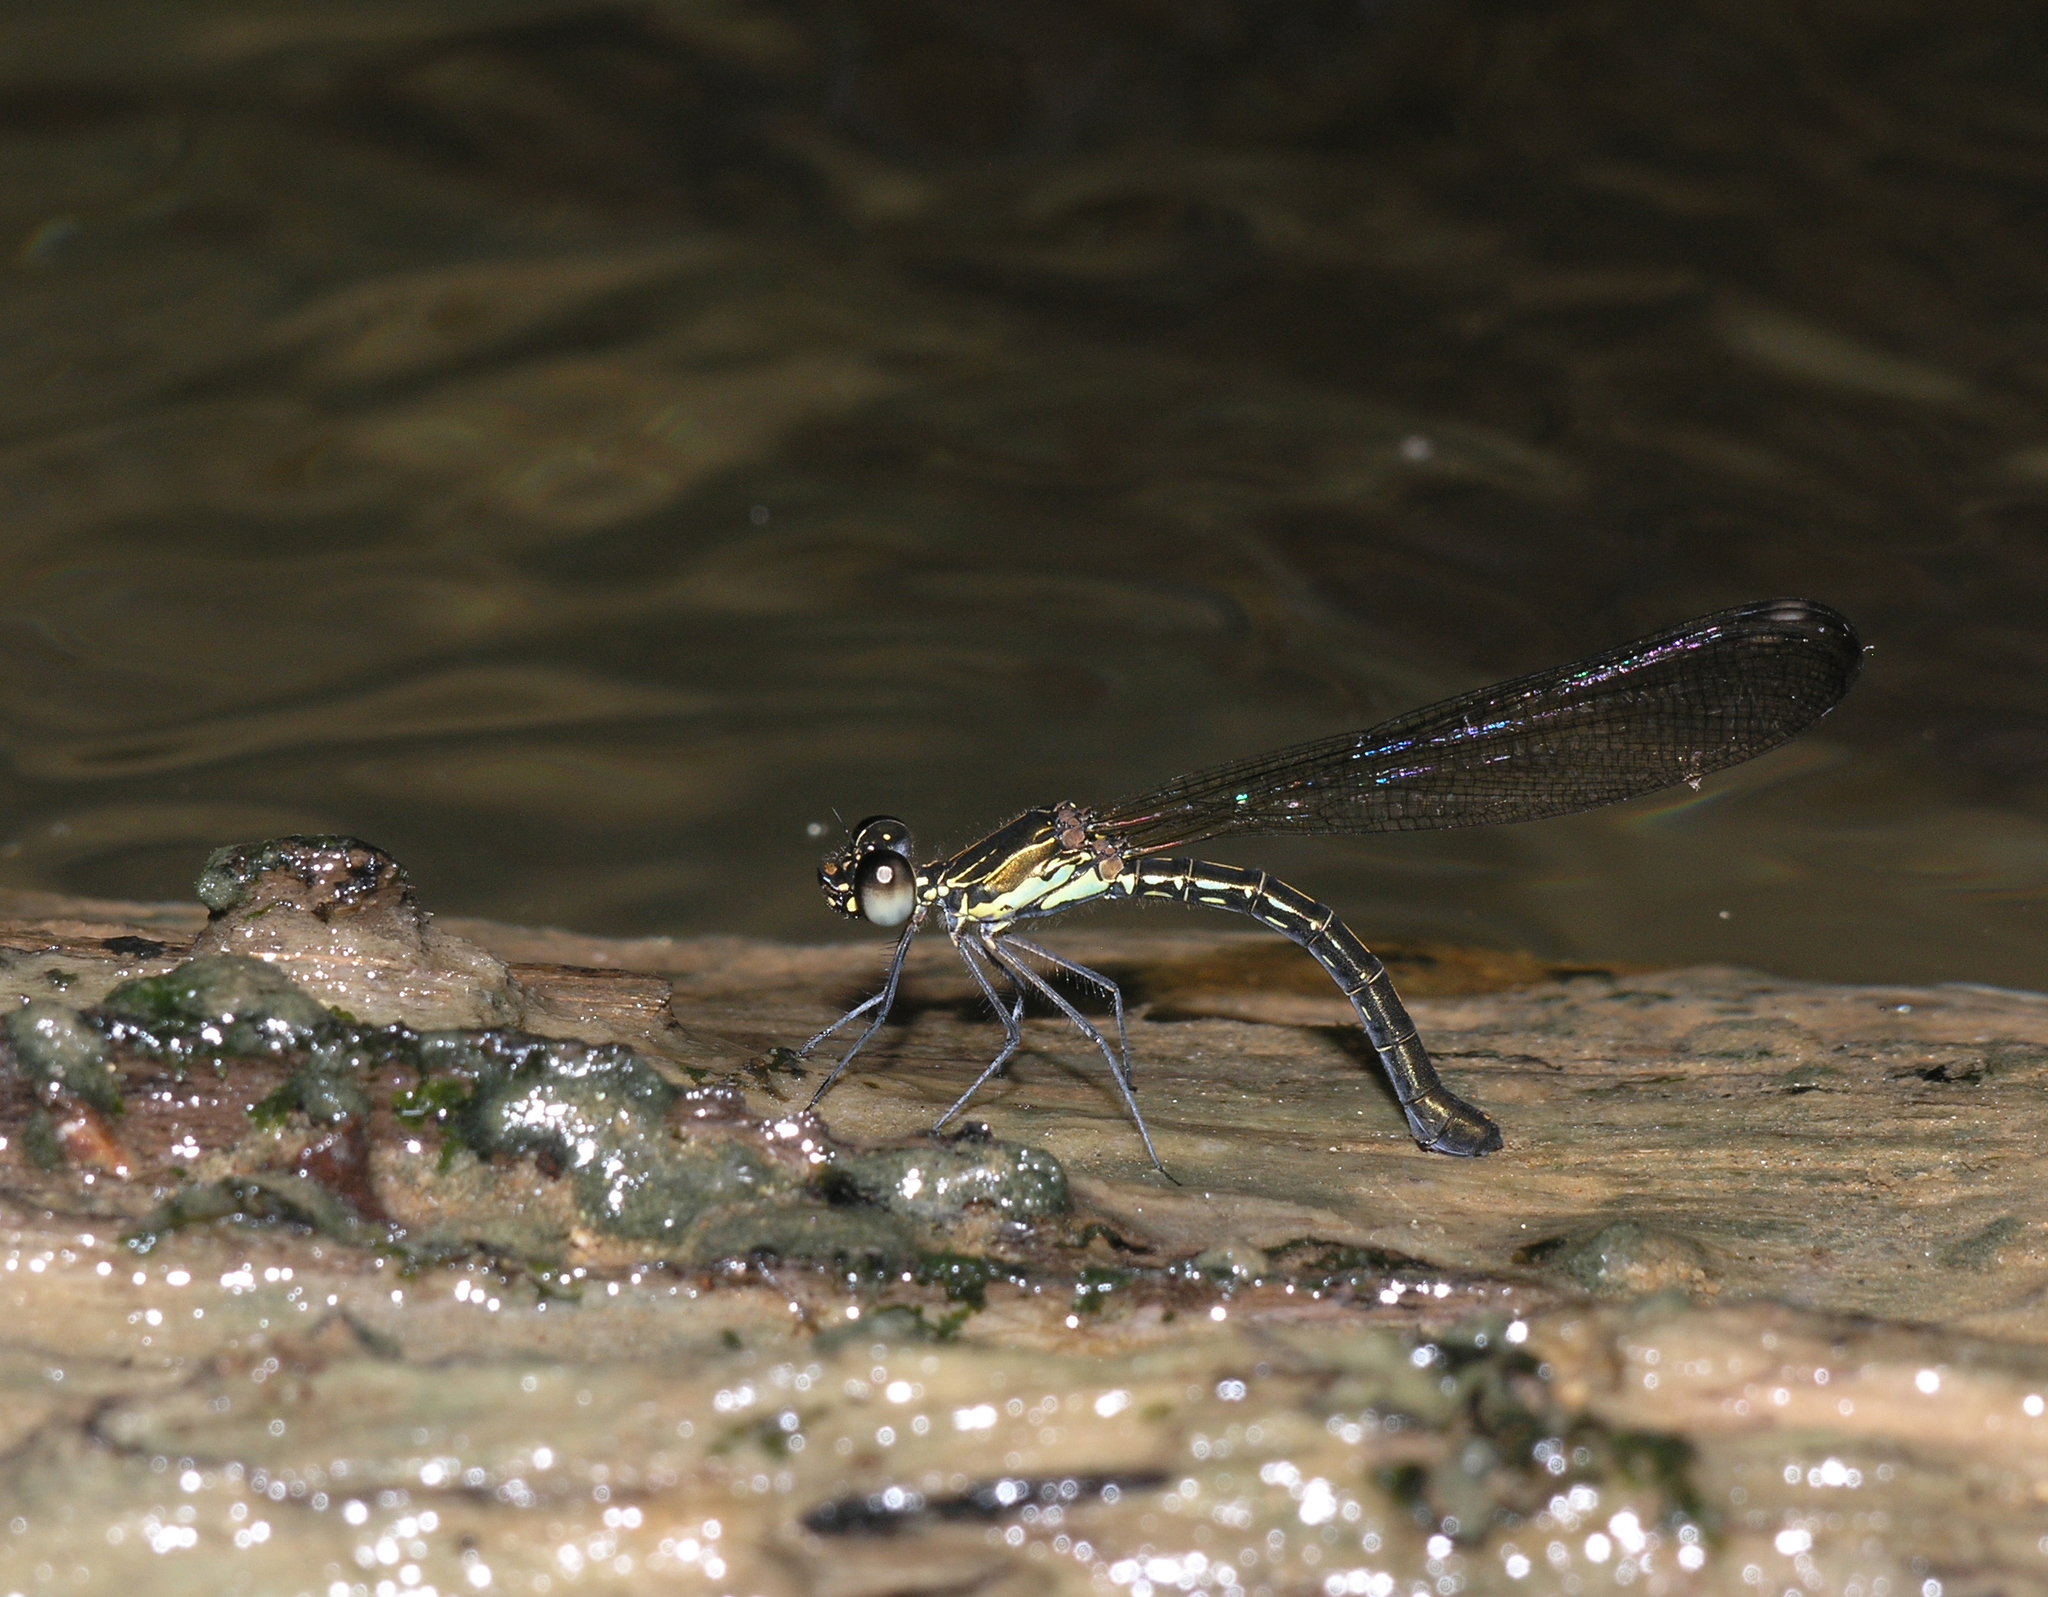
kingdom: Animalia
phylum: Arthropoda
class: Insecta
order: Odonata
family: Chlorocyphidae
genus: Heliocypha
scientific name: Heliocypha biforata
